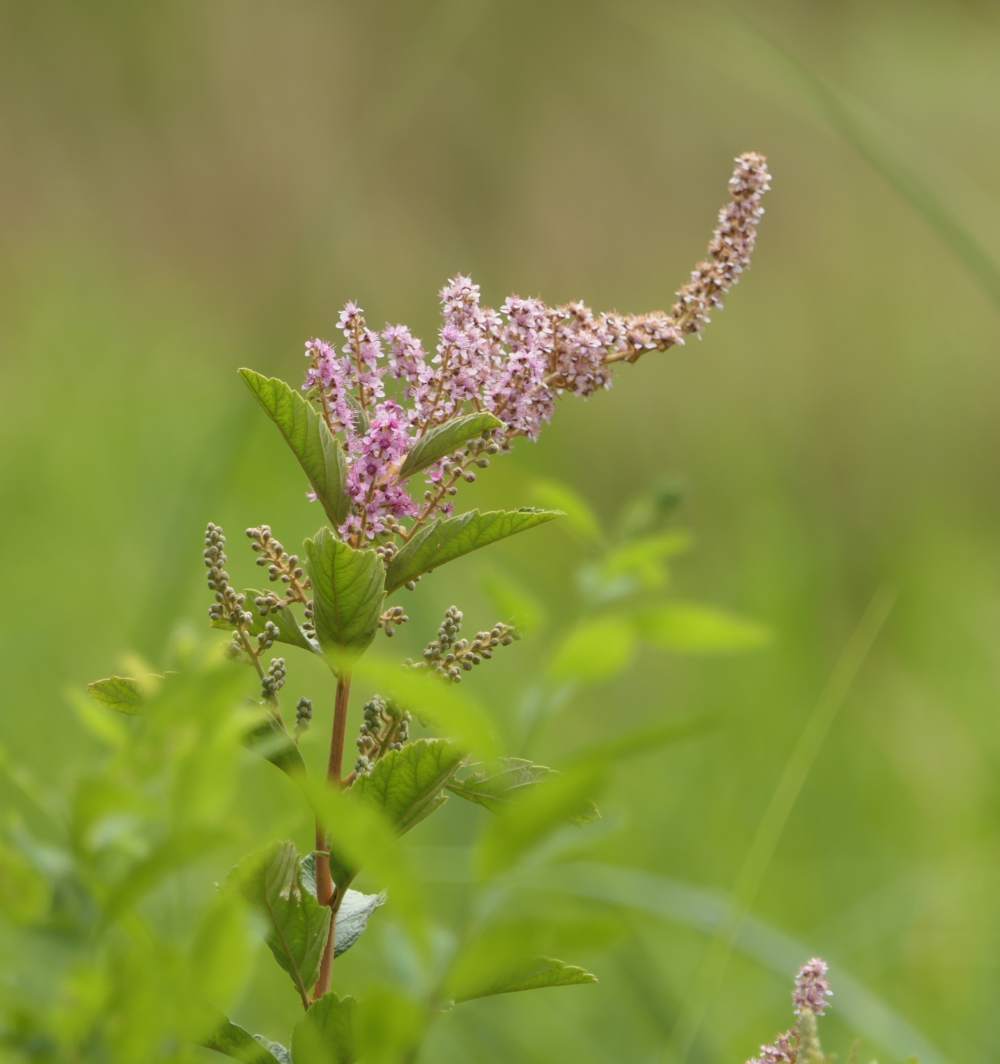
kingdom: Plantae
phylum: Tracheophyta
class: Magnoliopsida
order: Rosales
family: Rosaceae
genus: Spiraea
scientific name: Spiraea tomentosa
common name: Hardhack
